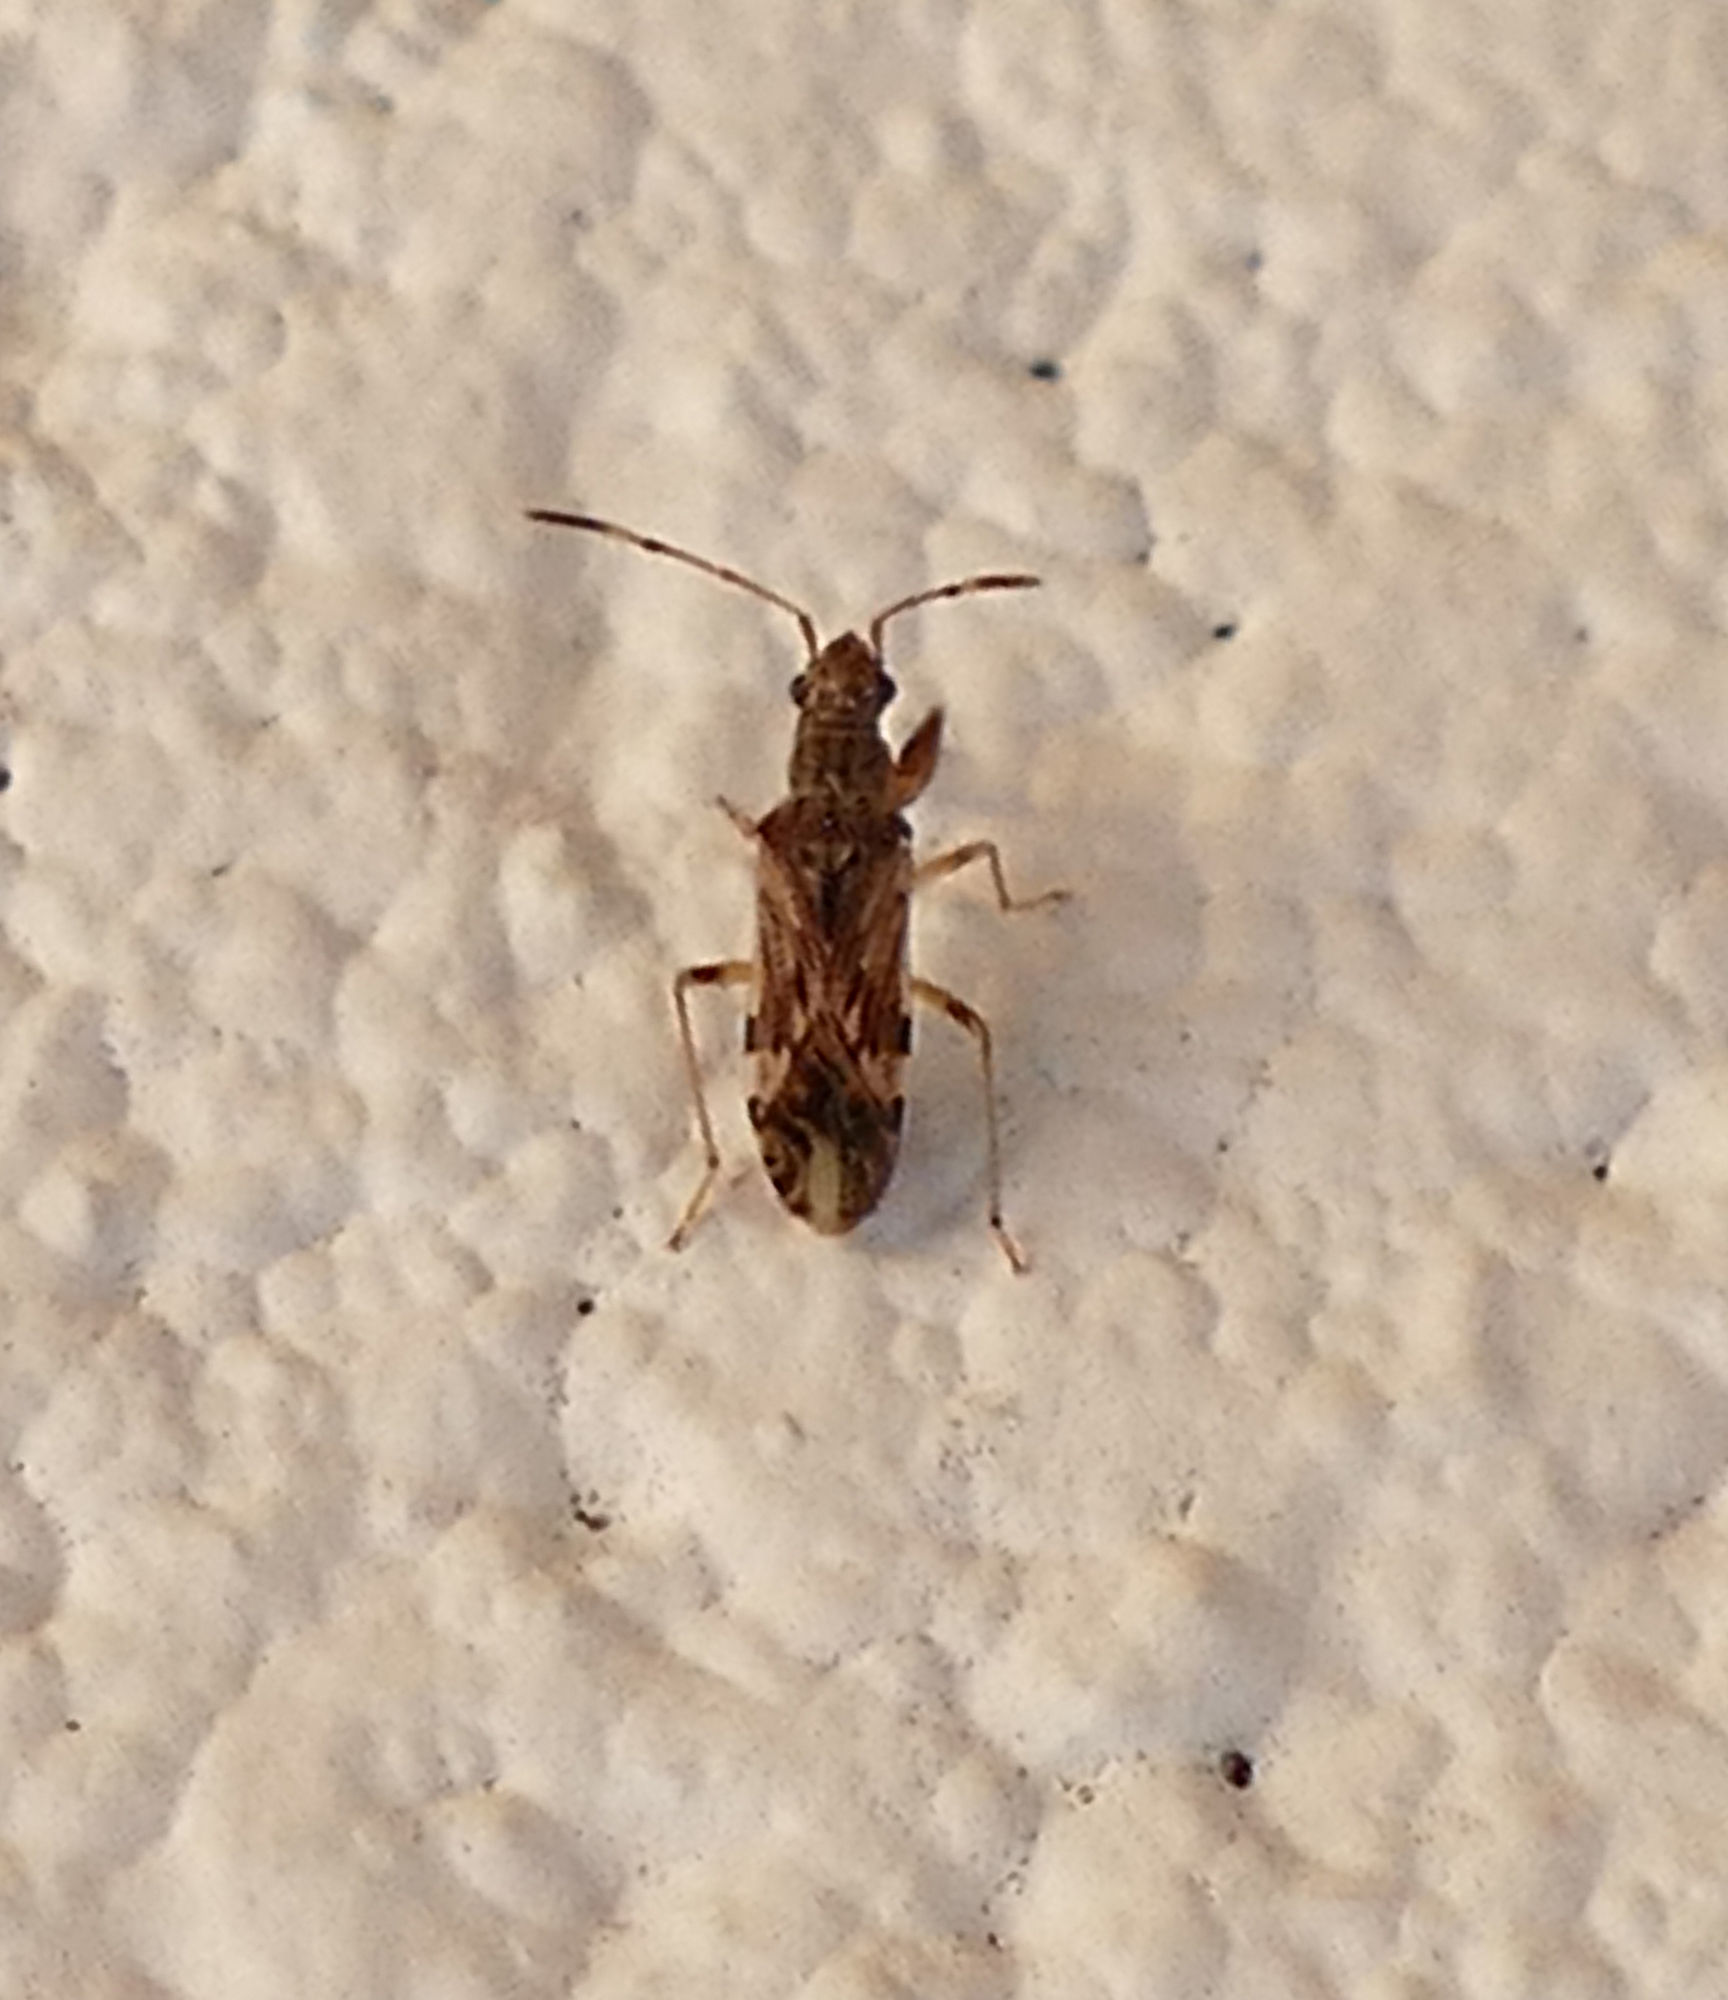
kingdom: Animalia
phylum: Arthropoda
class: Insecta
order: Hemiptera
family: Rhyparochromidae
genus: Neopamera
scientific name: Neopamera albocincta
